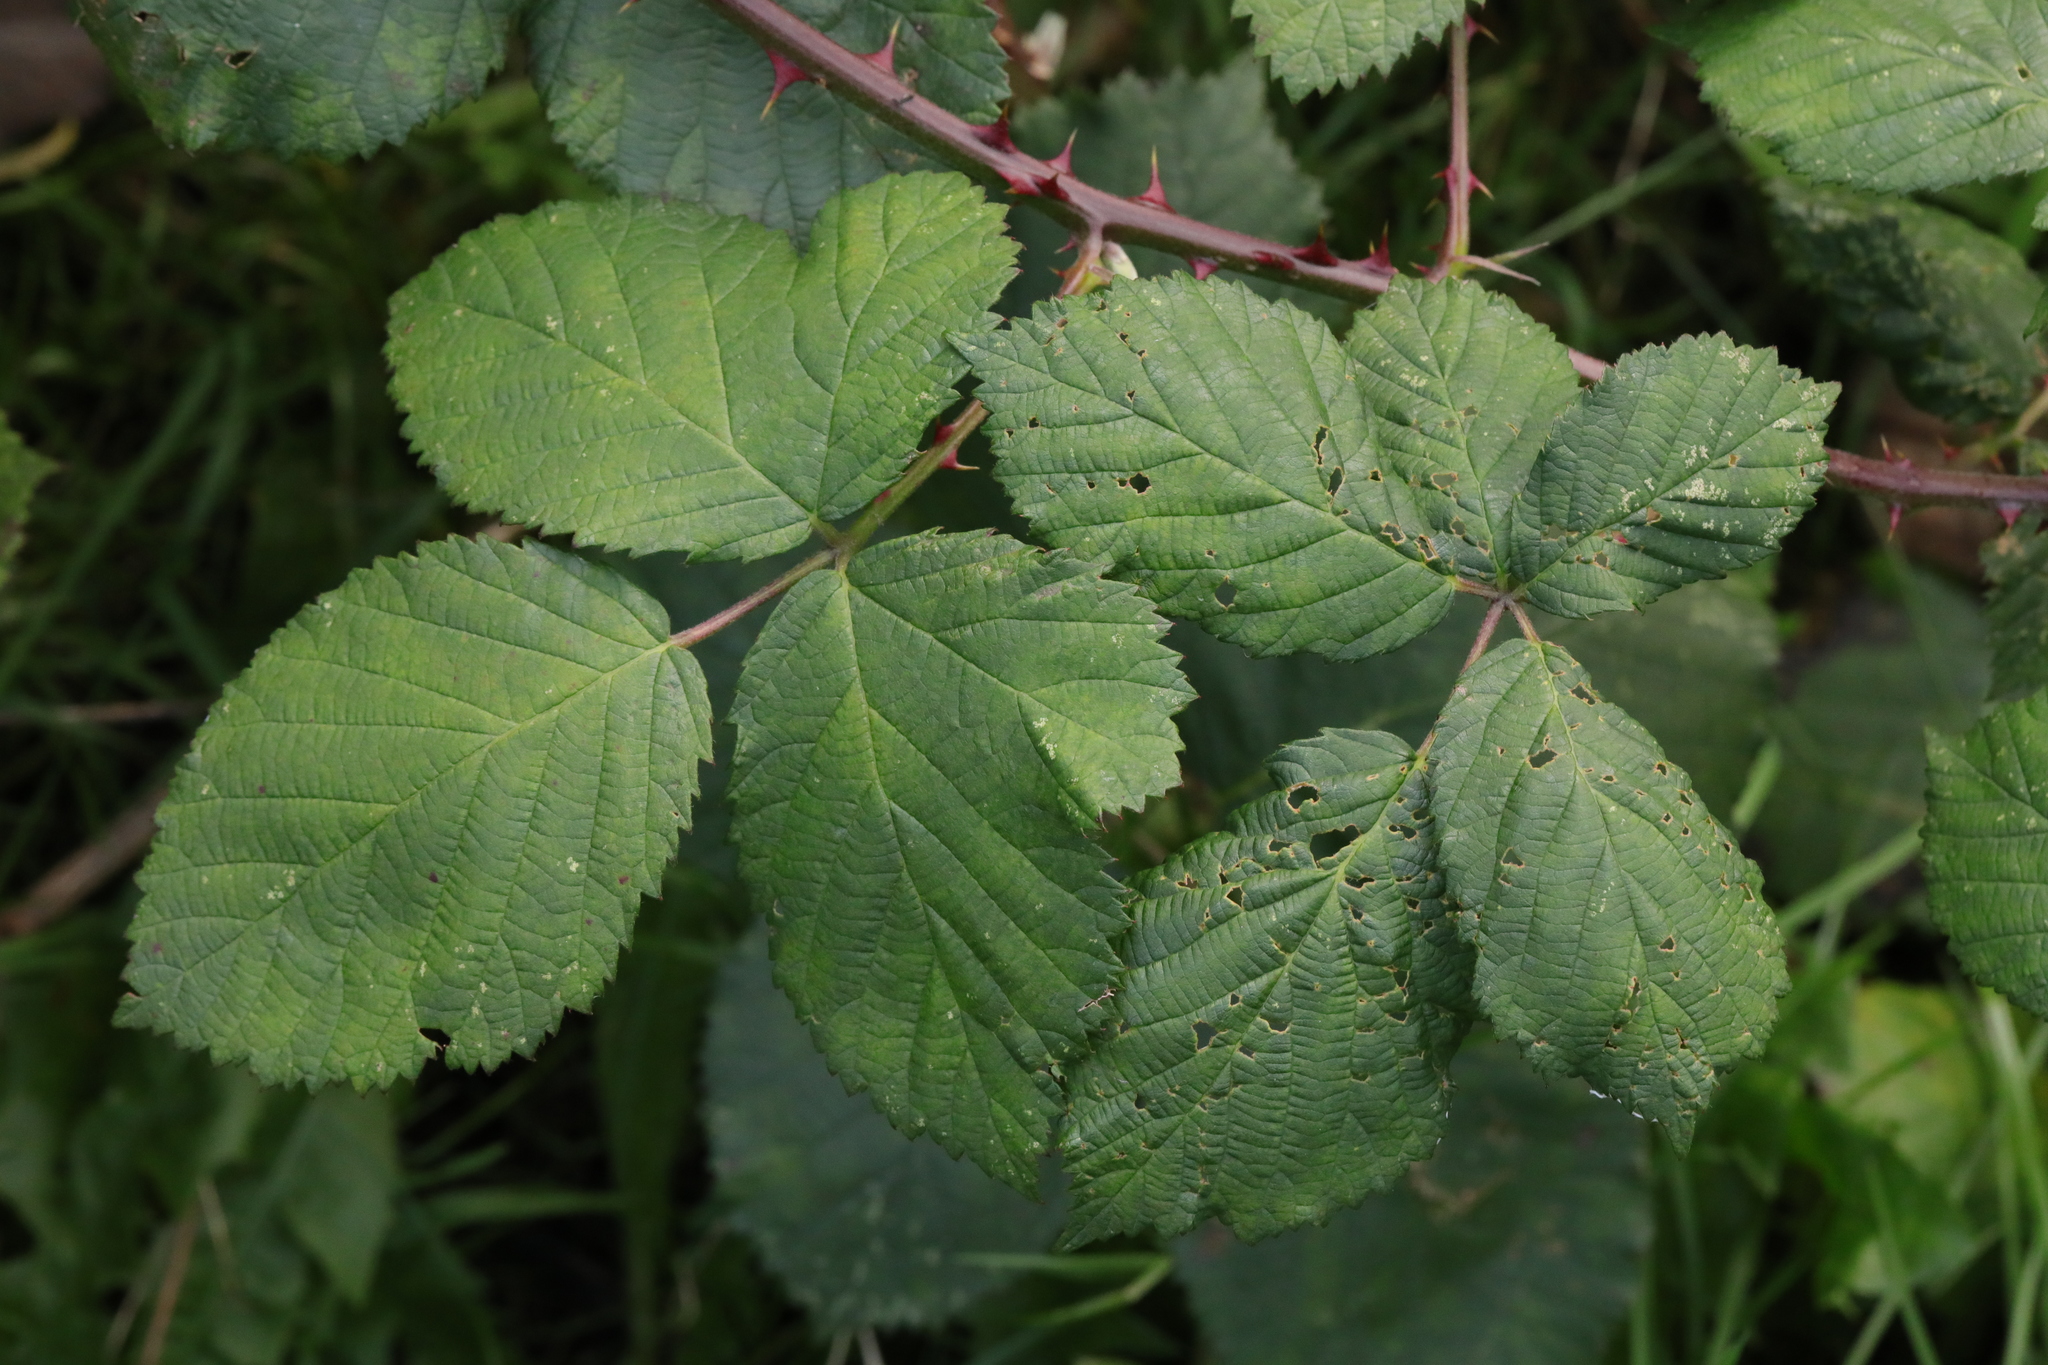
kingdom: Plantae
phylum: Tracheophyta
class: Magnoliopsida
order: Rosales
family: Rosaceae
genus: Rubus
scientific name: Rubus armeniacus
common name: Himalayan blackberry
